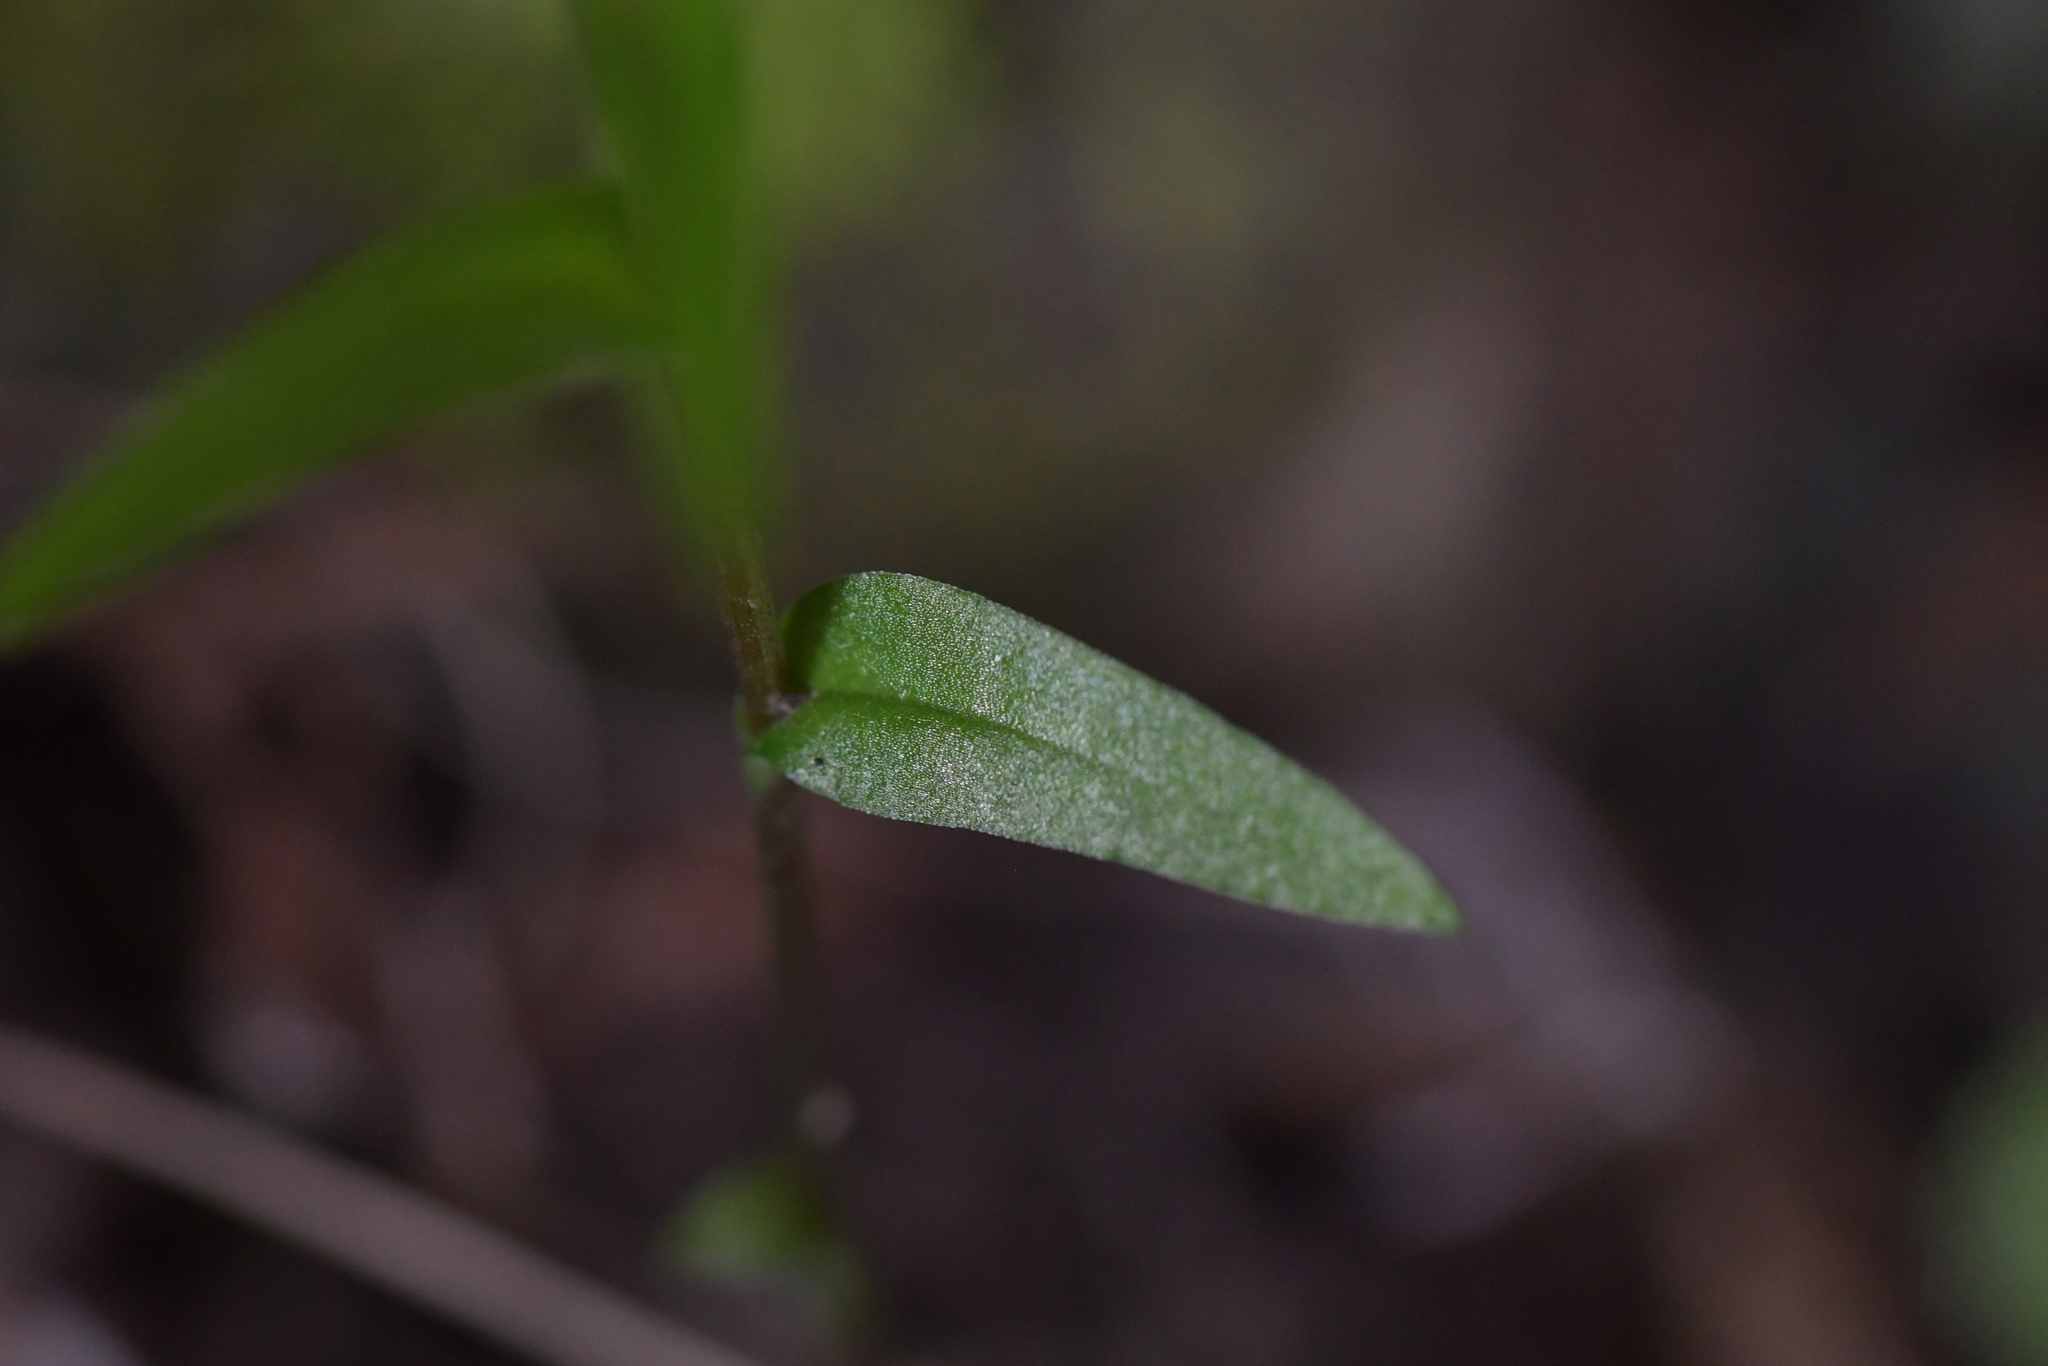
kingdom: Plantae
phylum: Tracheophyta
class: Liliopsida
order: Asparagales
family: Orchidaceae
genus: Pterostylis
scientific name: Pterostylis alobula
